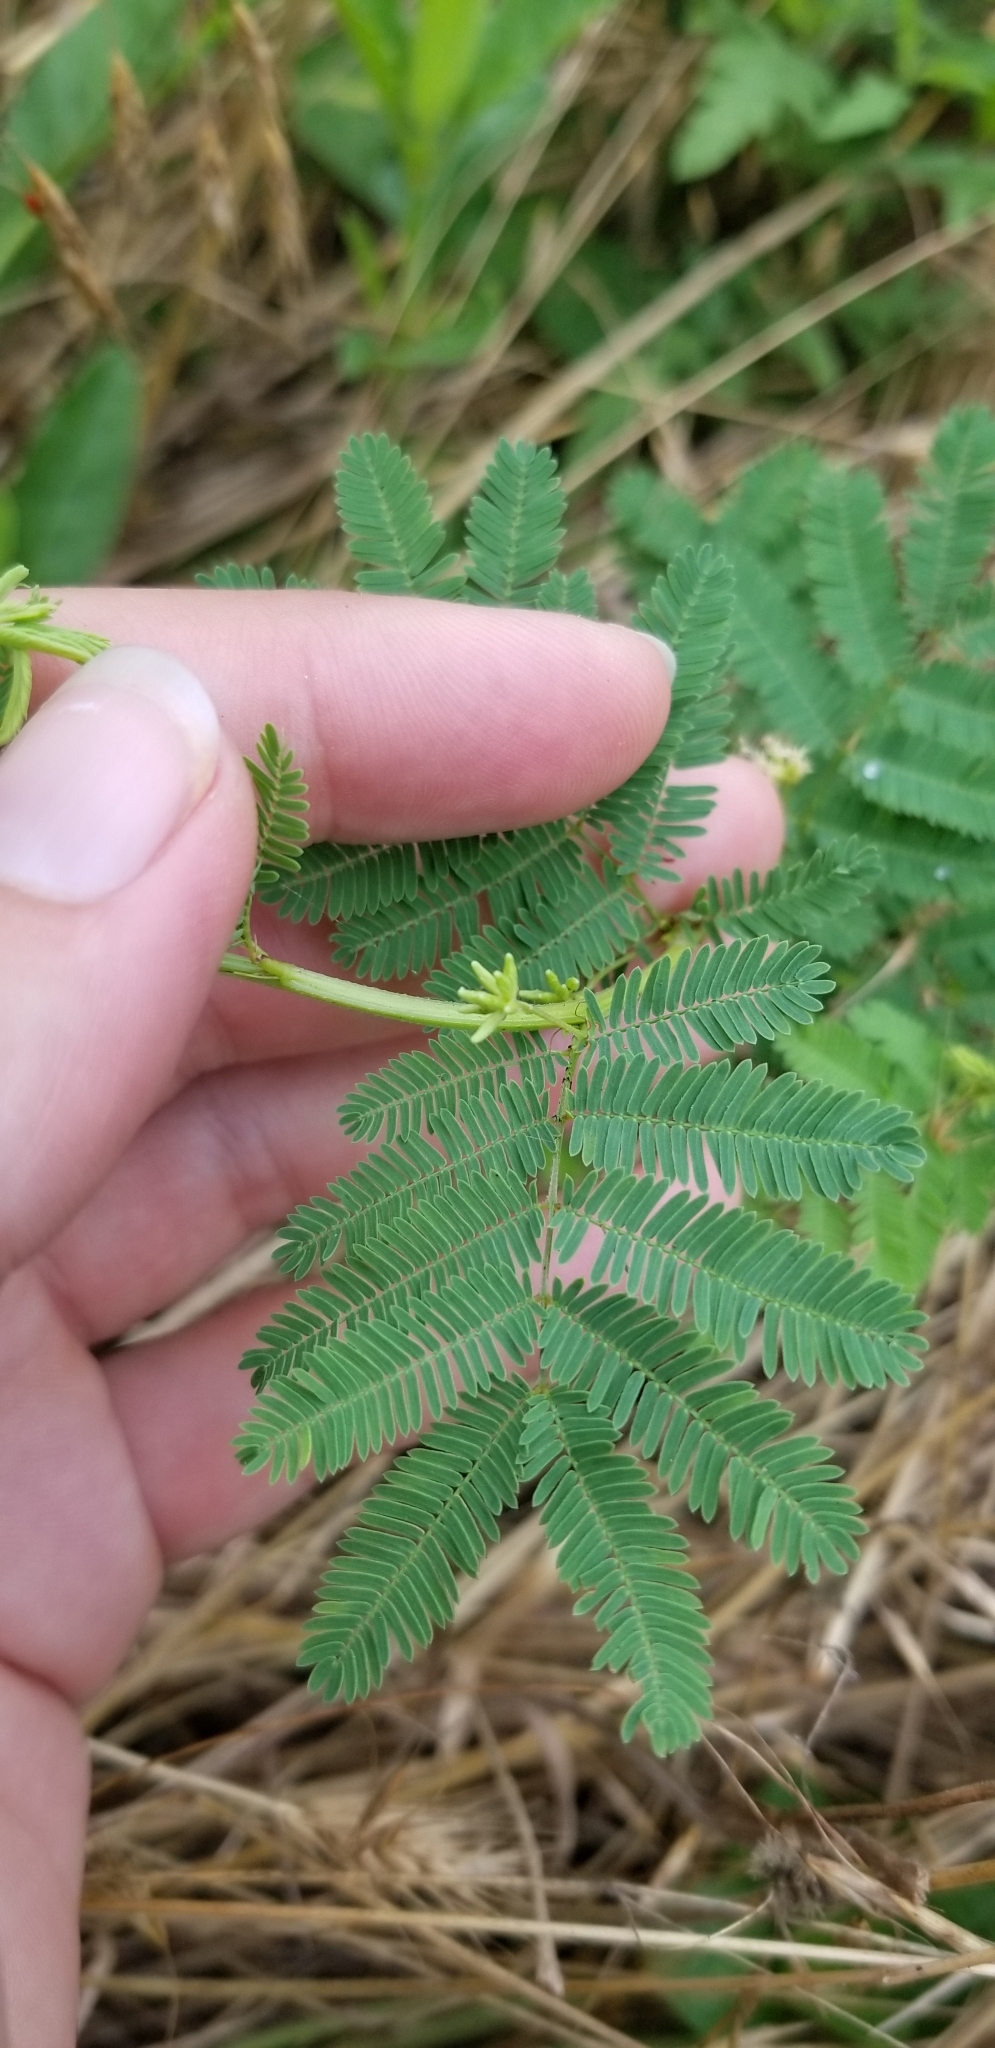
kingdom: Plantae
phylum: Tracheophyta
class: Magnoliopsida
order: Fabales
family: Fabaceae
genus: Desmanthus
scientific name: Desmanthus illinoensis
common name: Illinois bundle-flower
